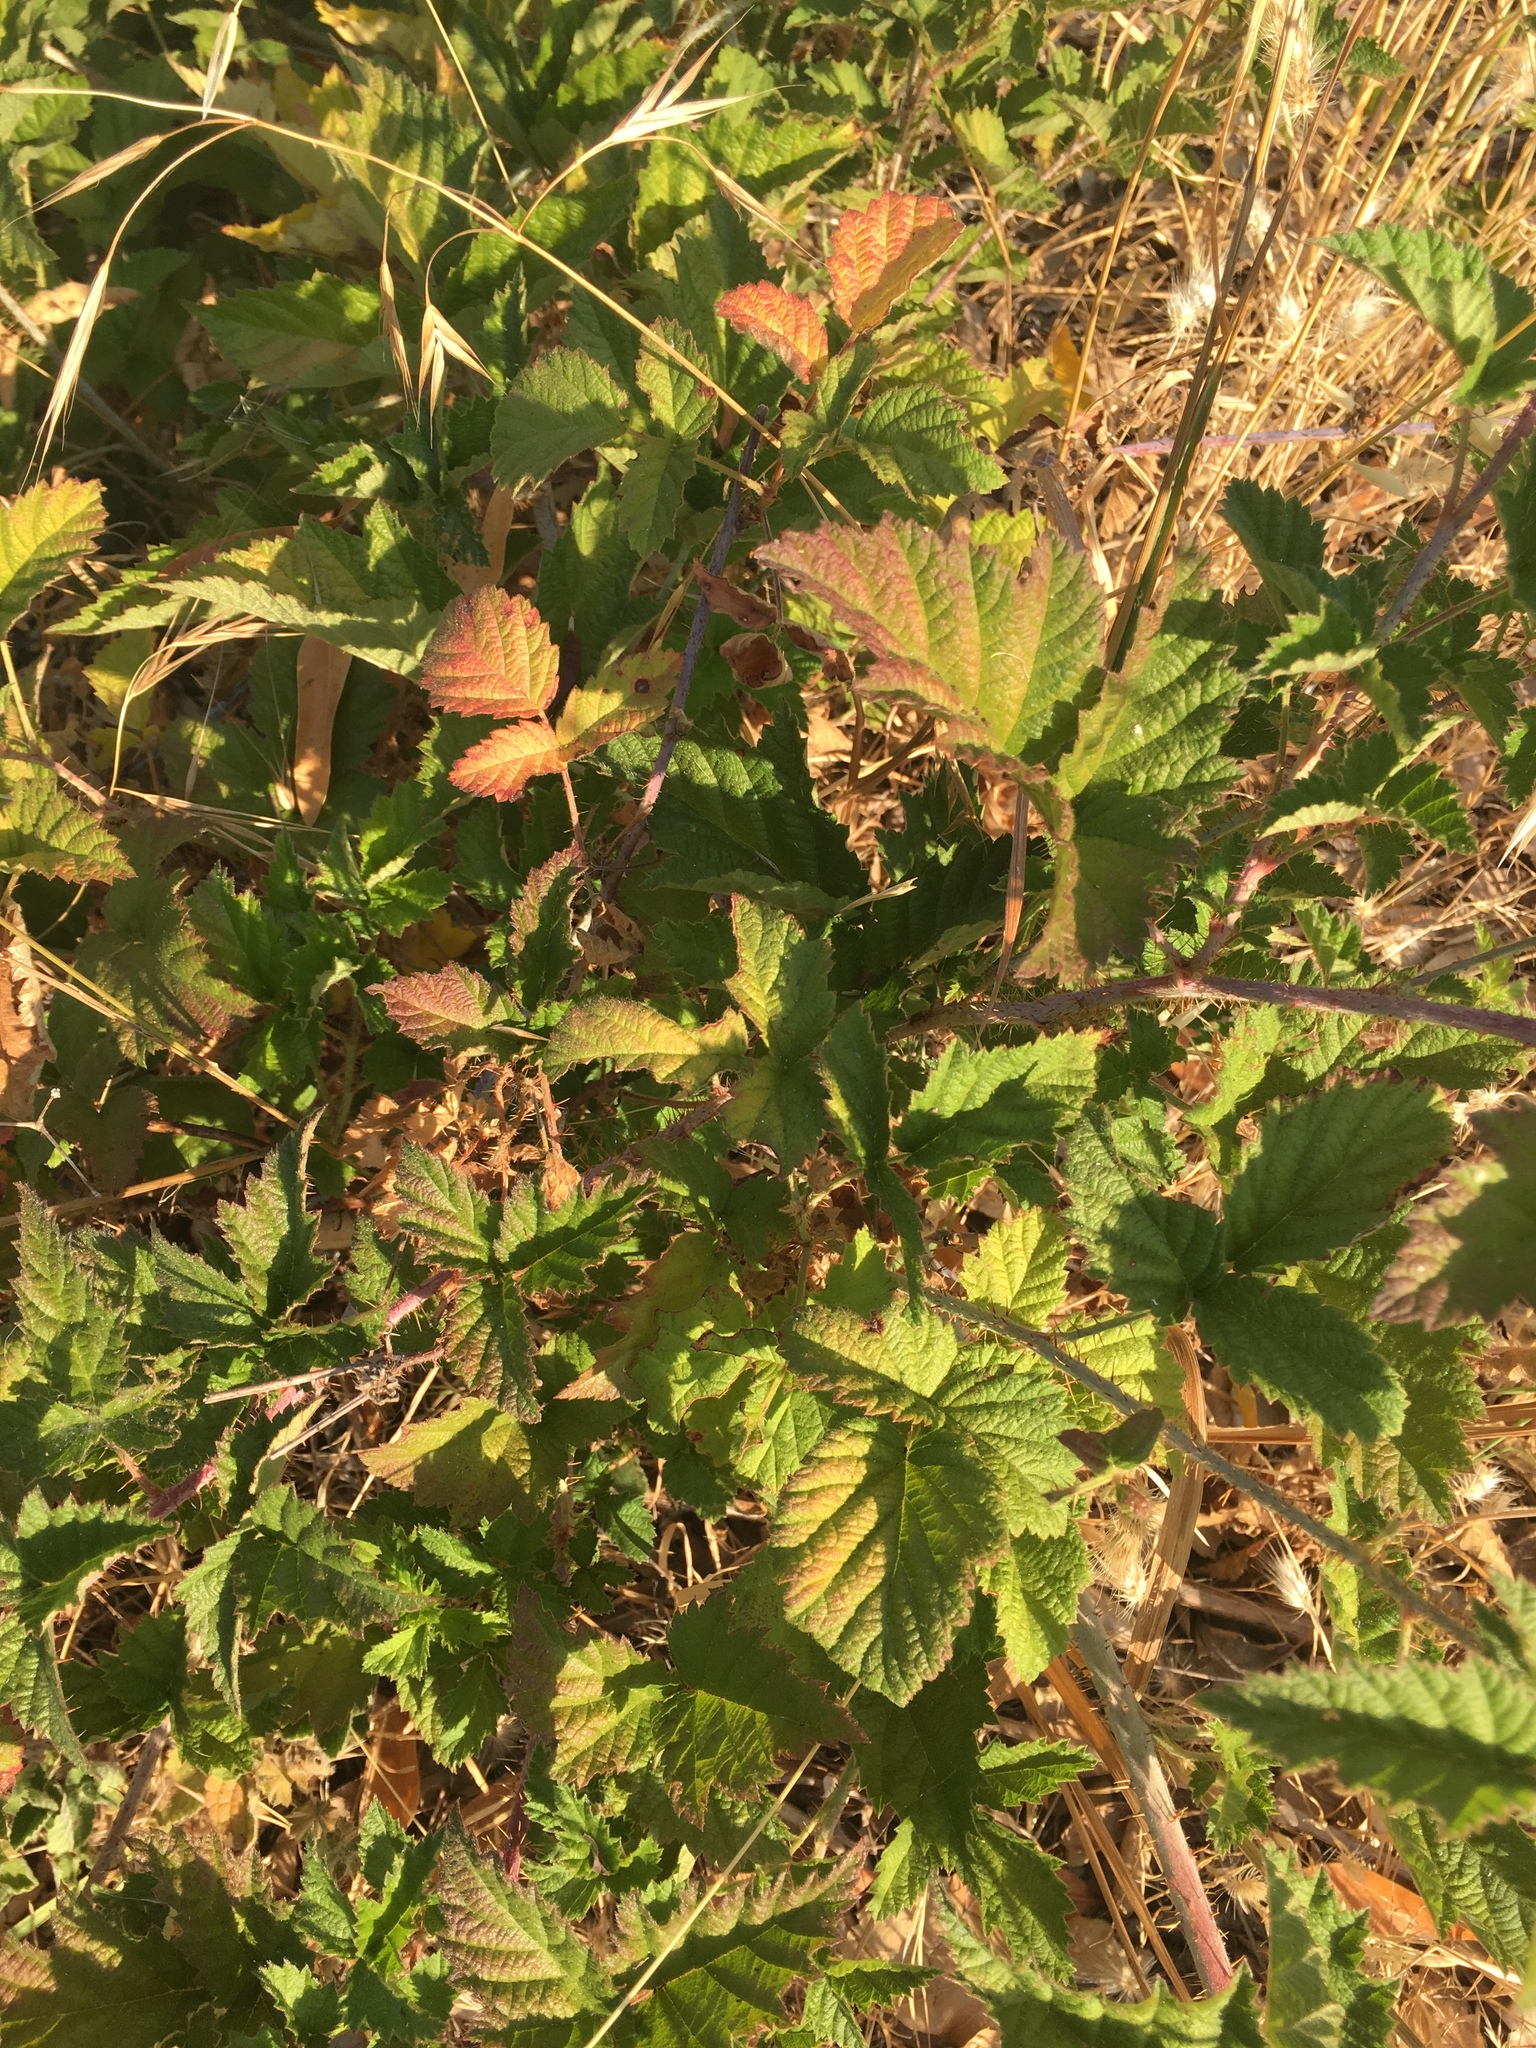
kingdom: Plantae
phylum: Tracheophyta
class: Magnoliopsida
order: Rosales
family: Rosaceae
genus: Rubus
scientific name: Rubus ursinus
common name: Pacific blackberry
